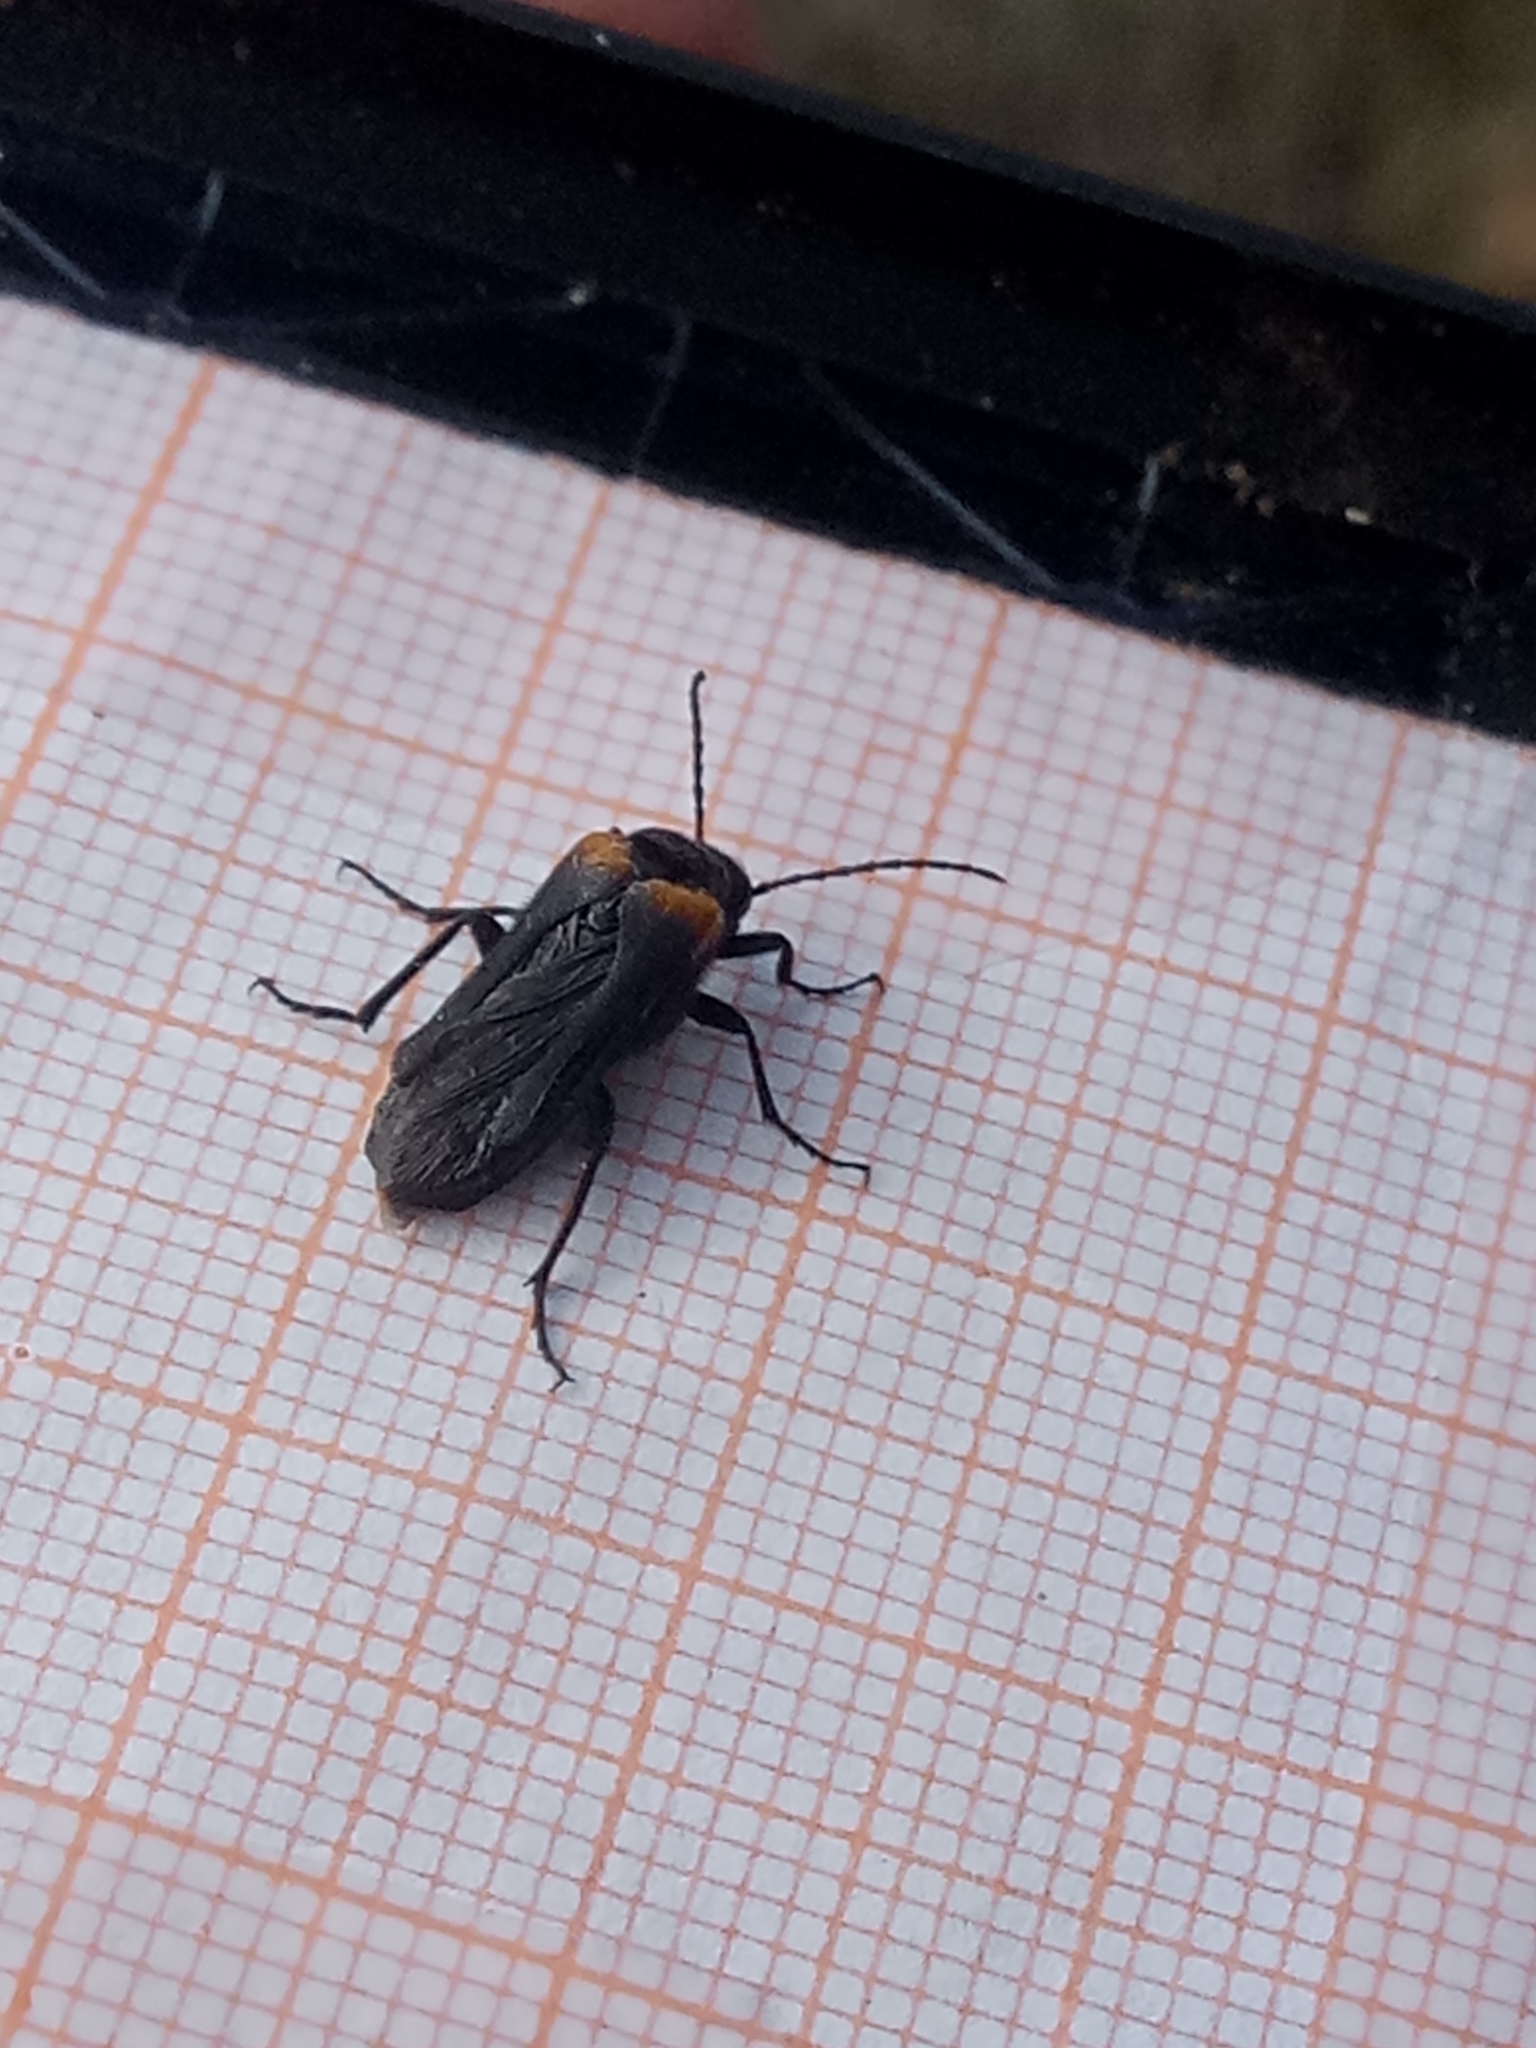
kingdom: Animalia
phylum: Arthropoda
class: Insecta
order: Coleoptera
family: Meloidae
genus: Sitaris
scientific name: Sitaris muralis
